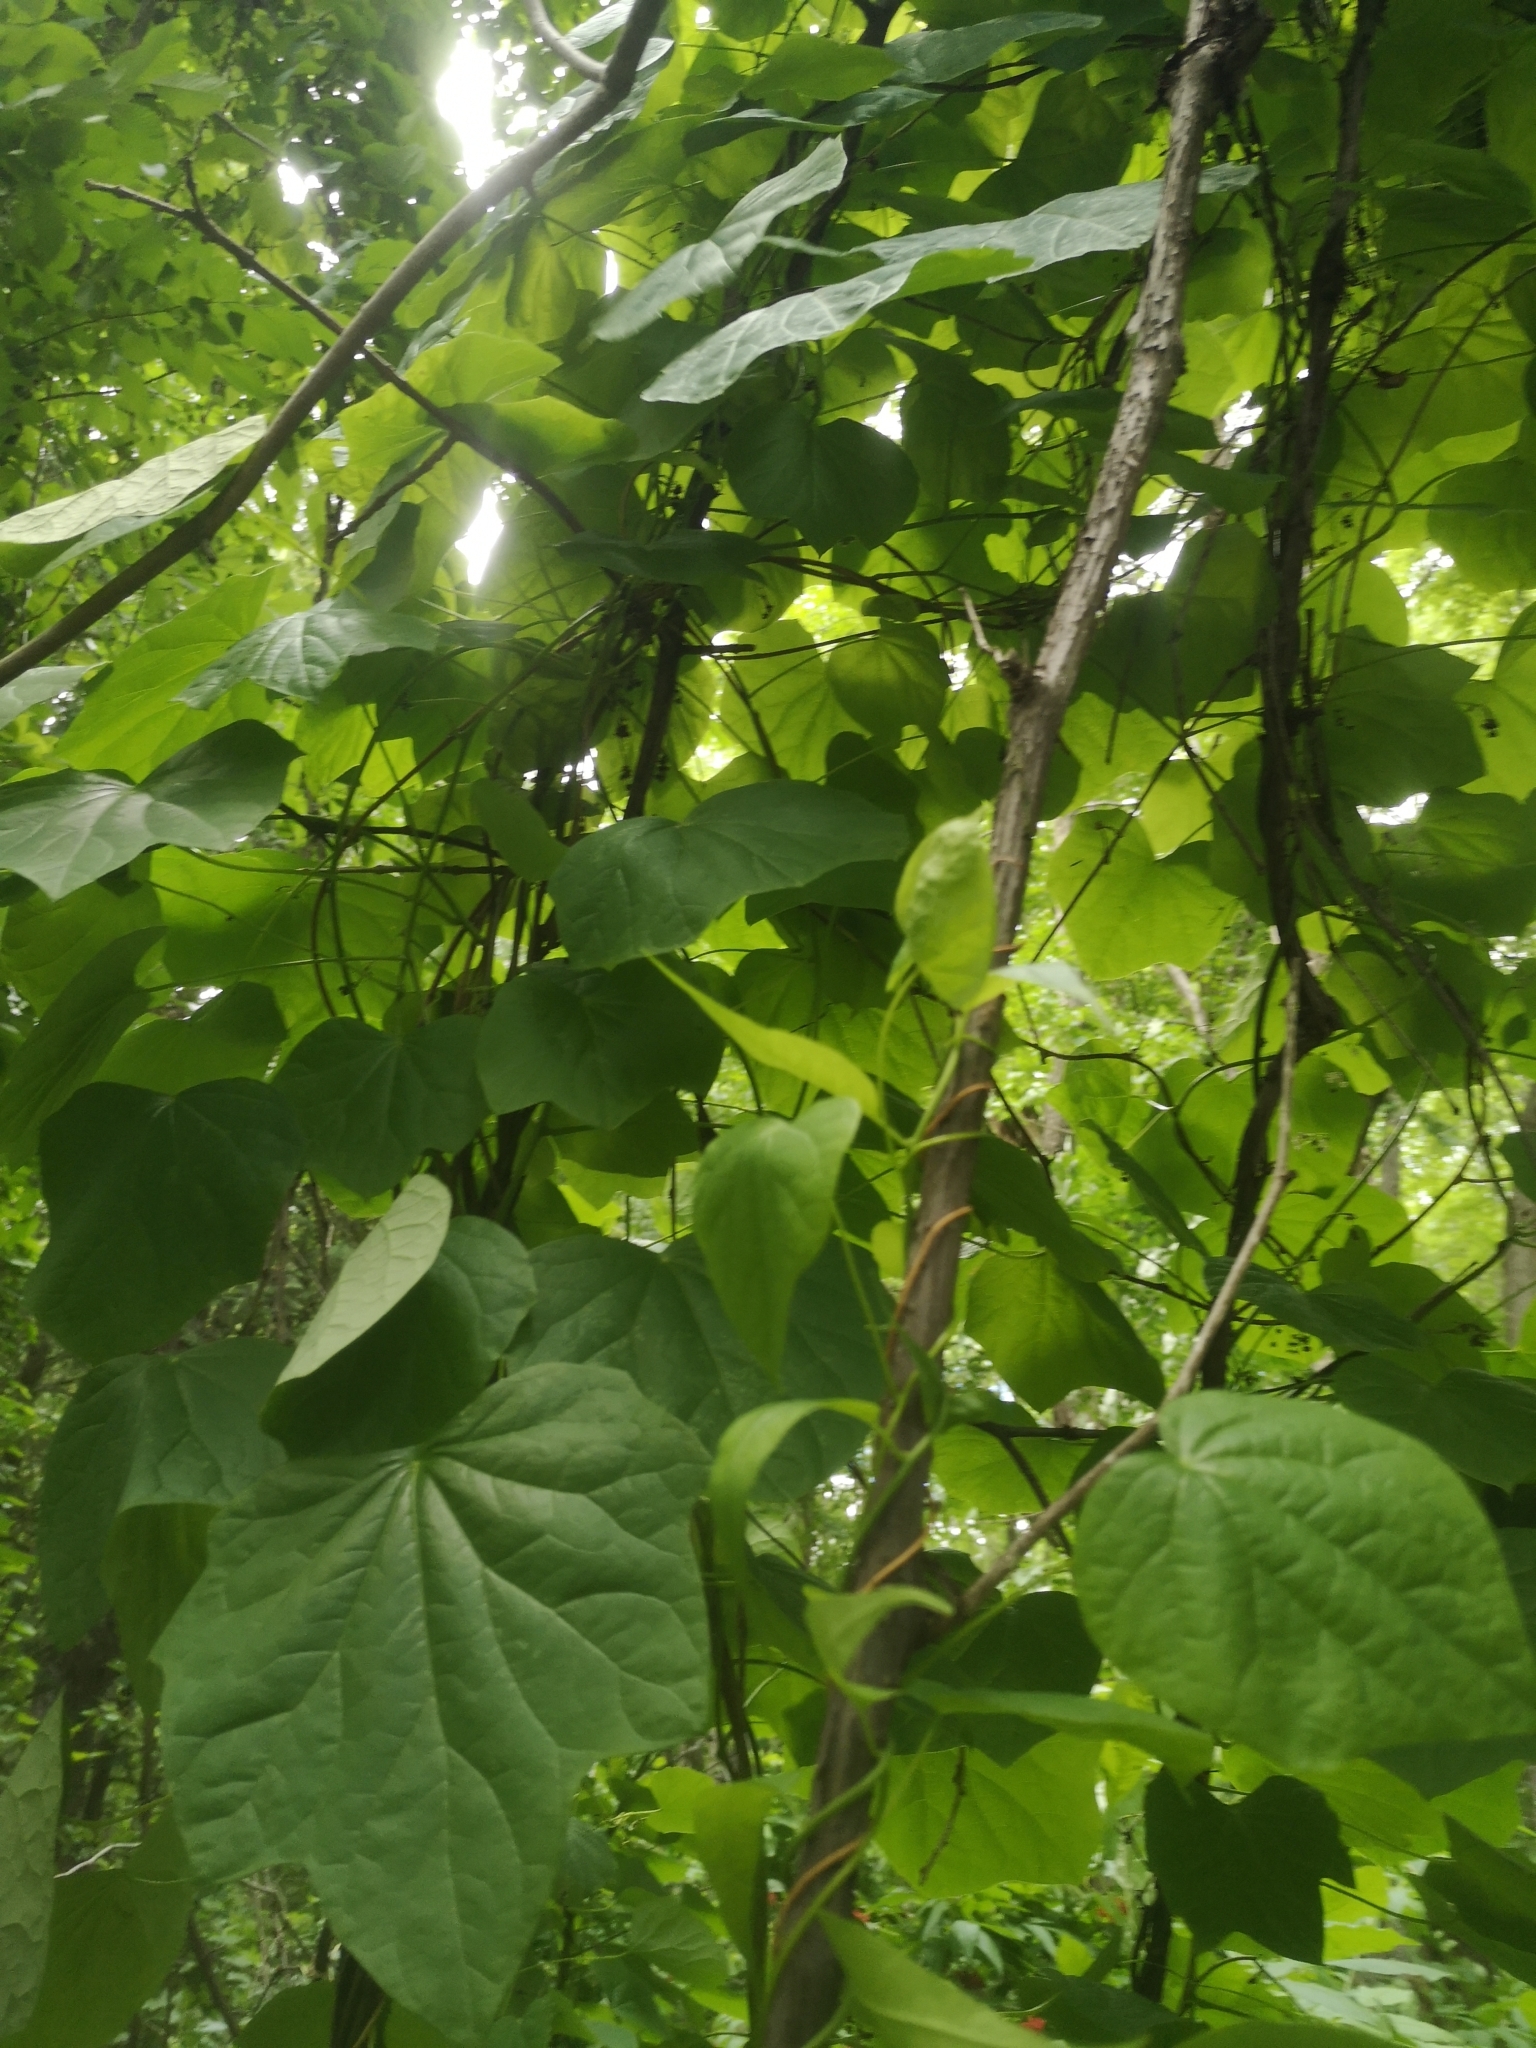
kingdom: Plantae
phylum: Tracheophyta
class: Magnoliopsida
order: Ranunculales
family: Menispermaceae
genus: Menispermum
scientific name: Menispermum canadense
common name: Moonseed
